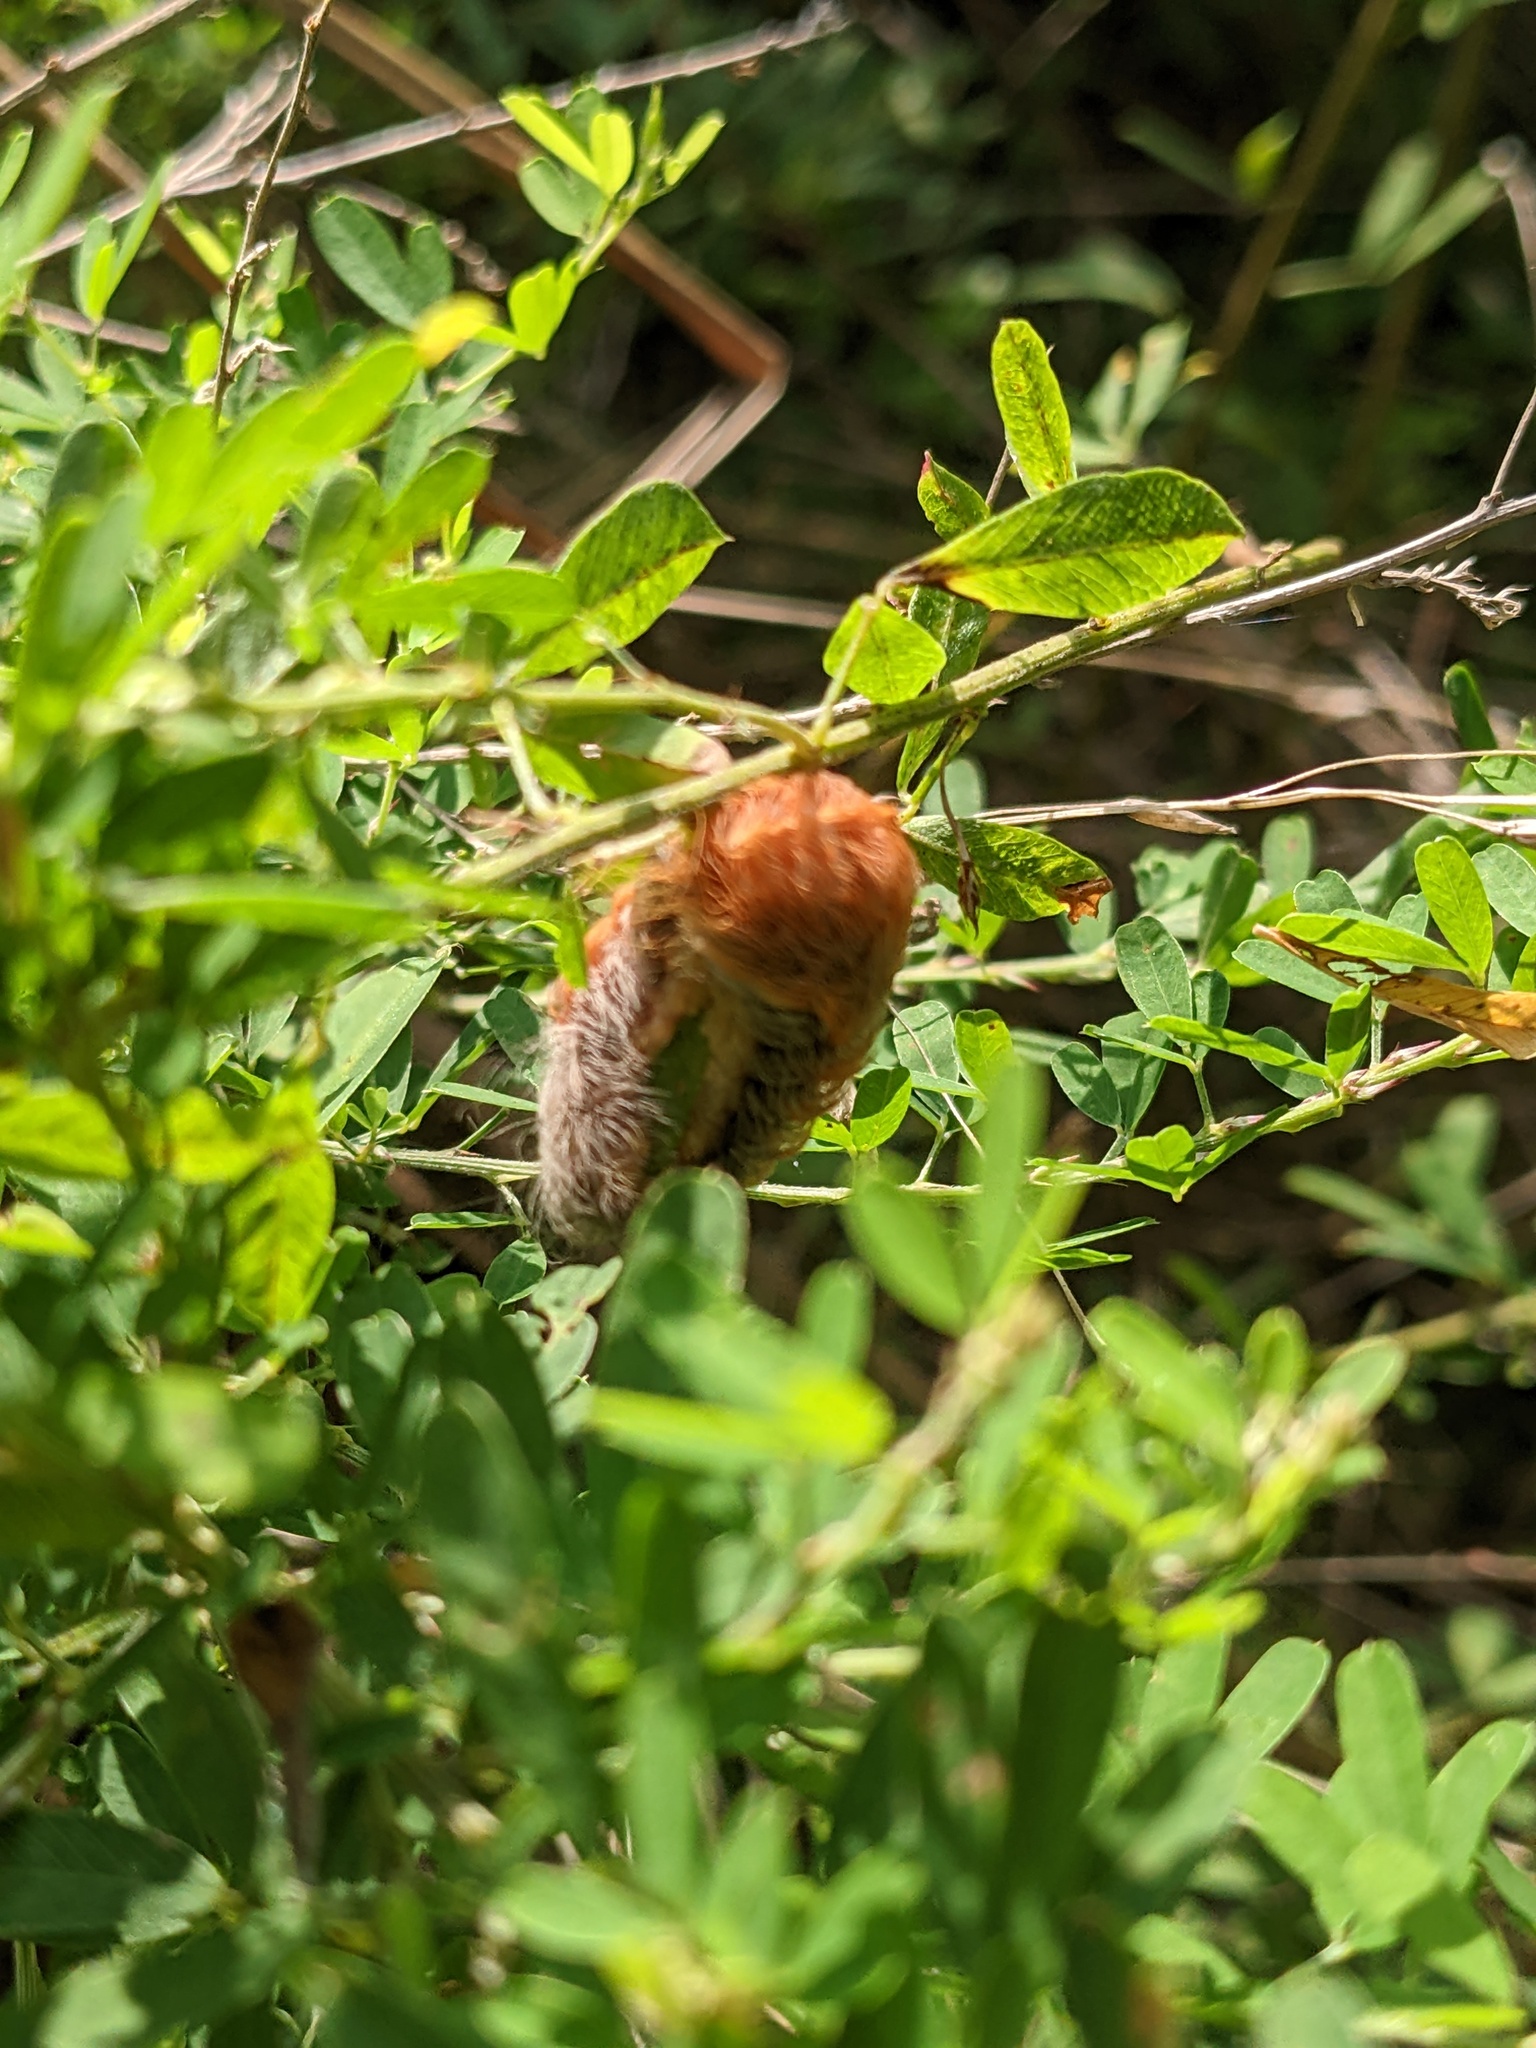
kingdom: Animalia
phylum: Arthropoda
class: Insecta
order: Lepidoptera
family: Megalopygidae
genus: Megalopyge
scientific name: Megalopyge crispata
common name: Black-waved flannel moth
